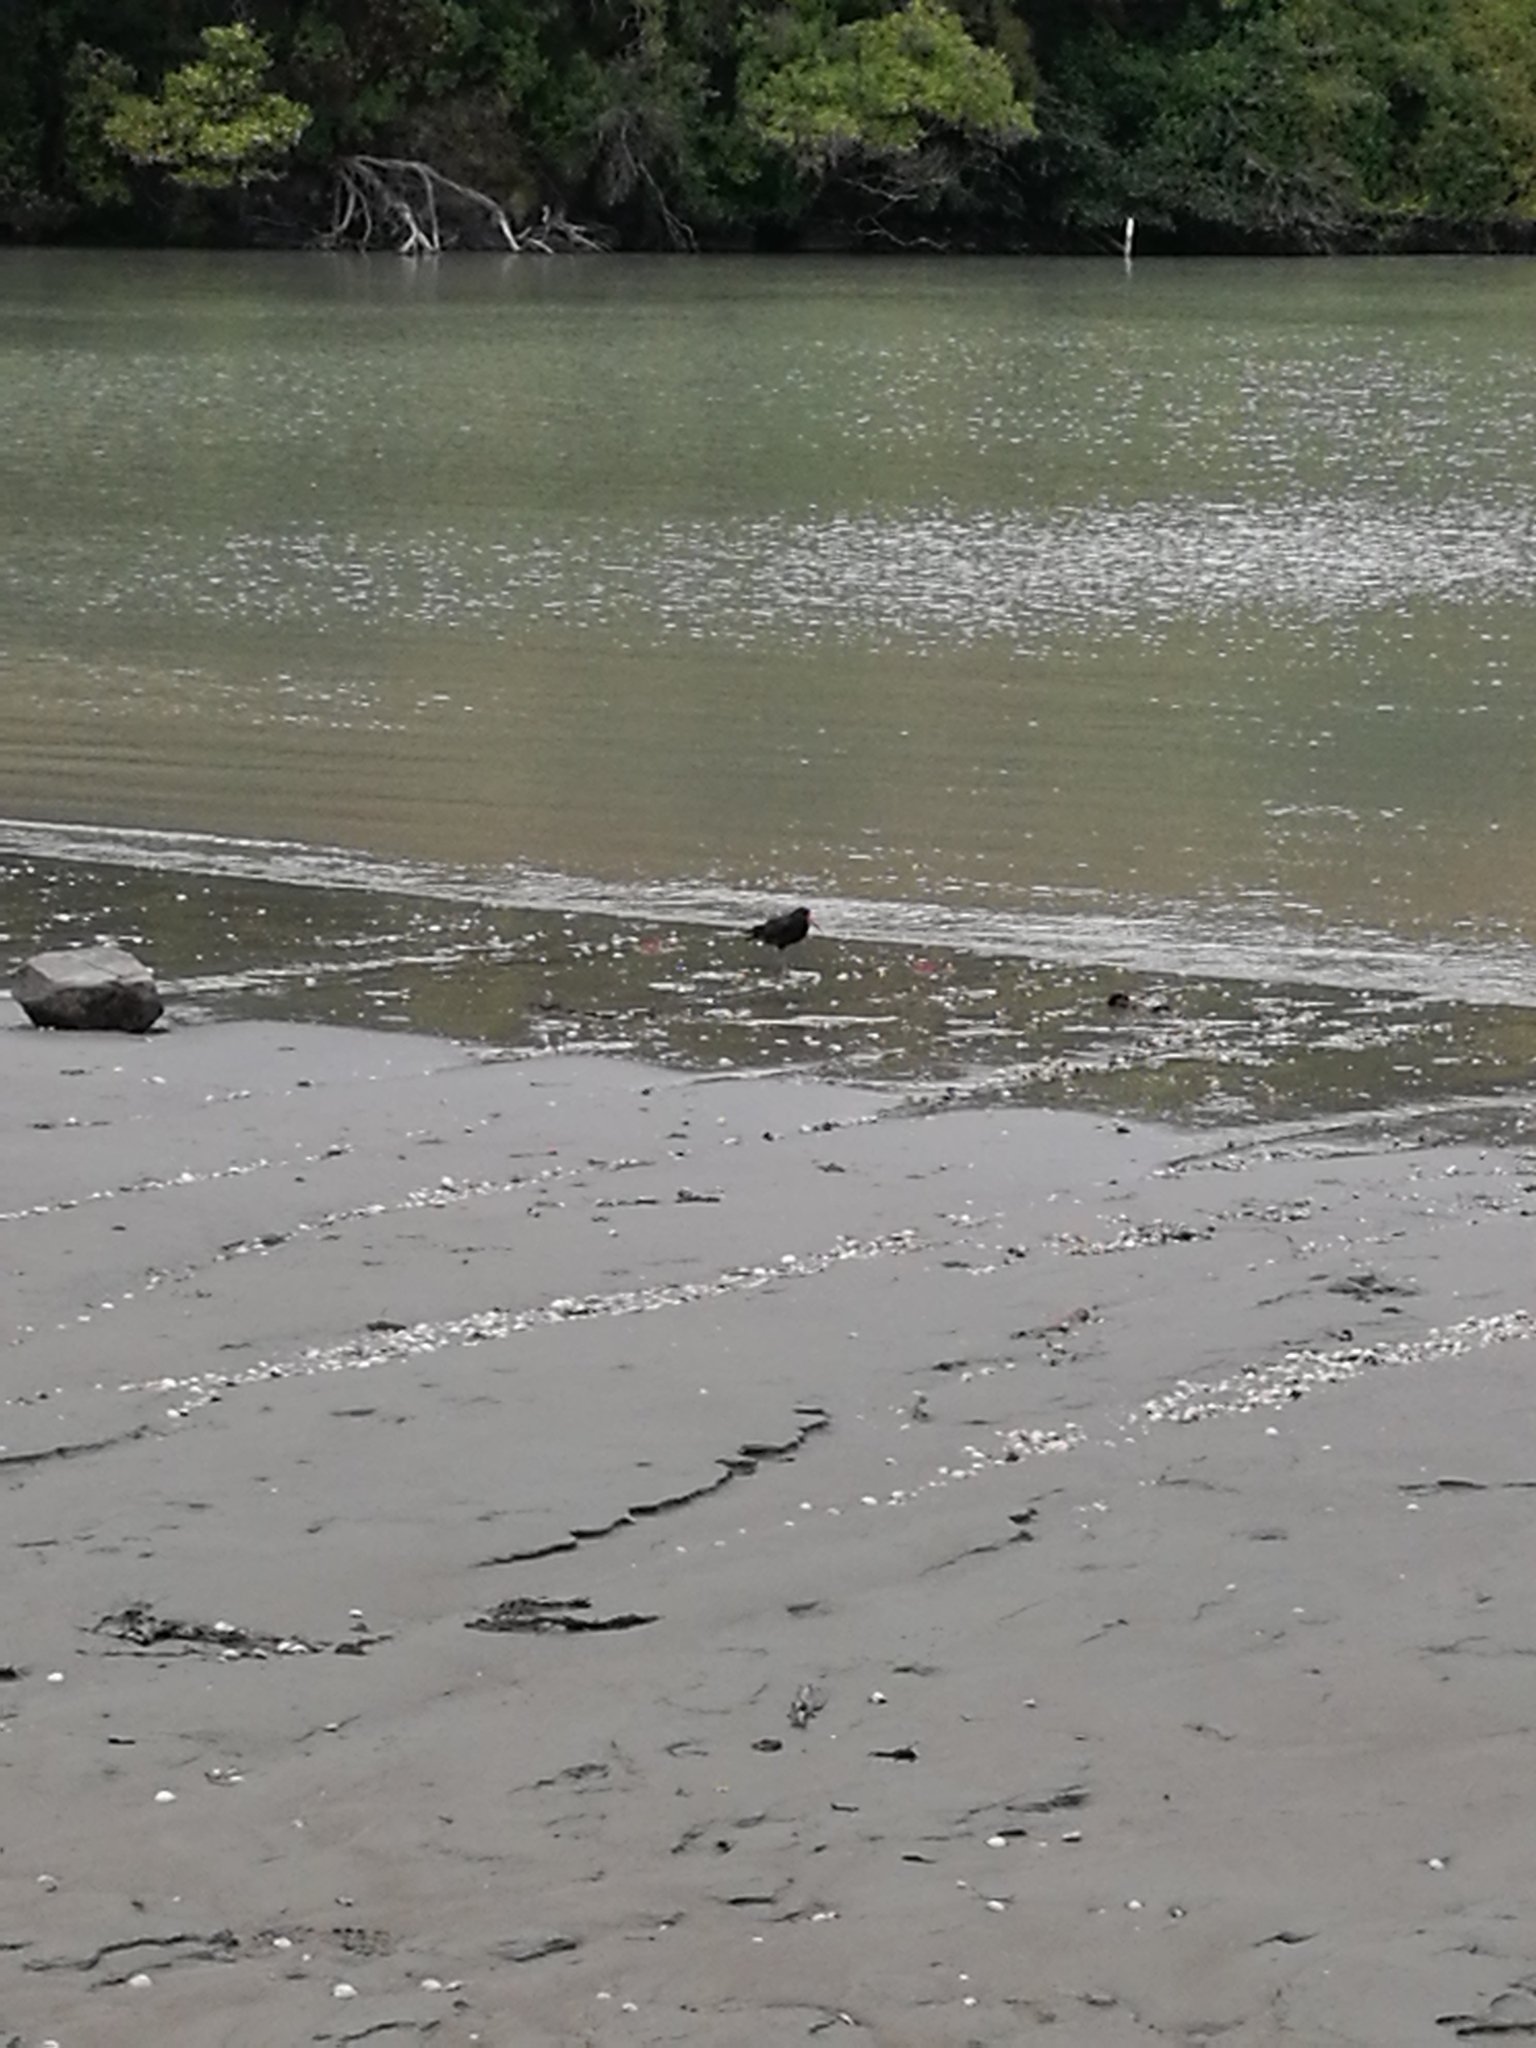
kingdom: Animalia
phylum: Chordata
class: Aves
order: Charadriiformes
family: Haematopodidae
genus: Haematopus
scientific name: Haematopus unicolor
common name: Variable oystercatcher
